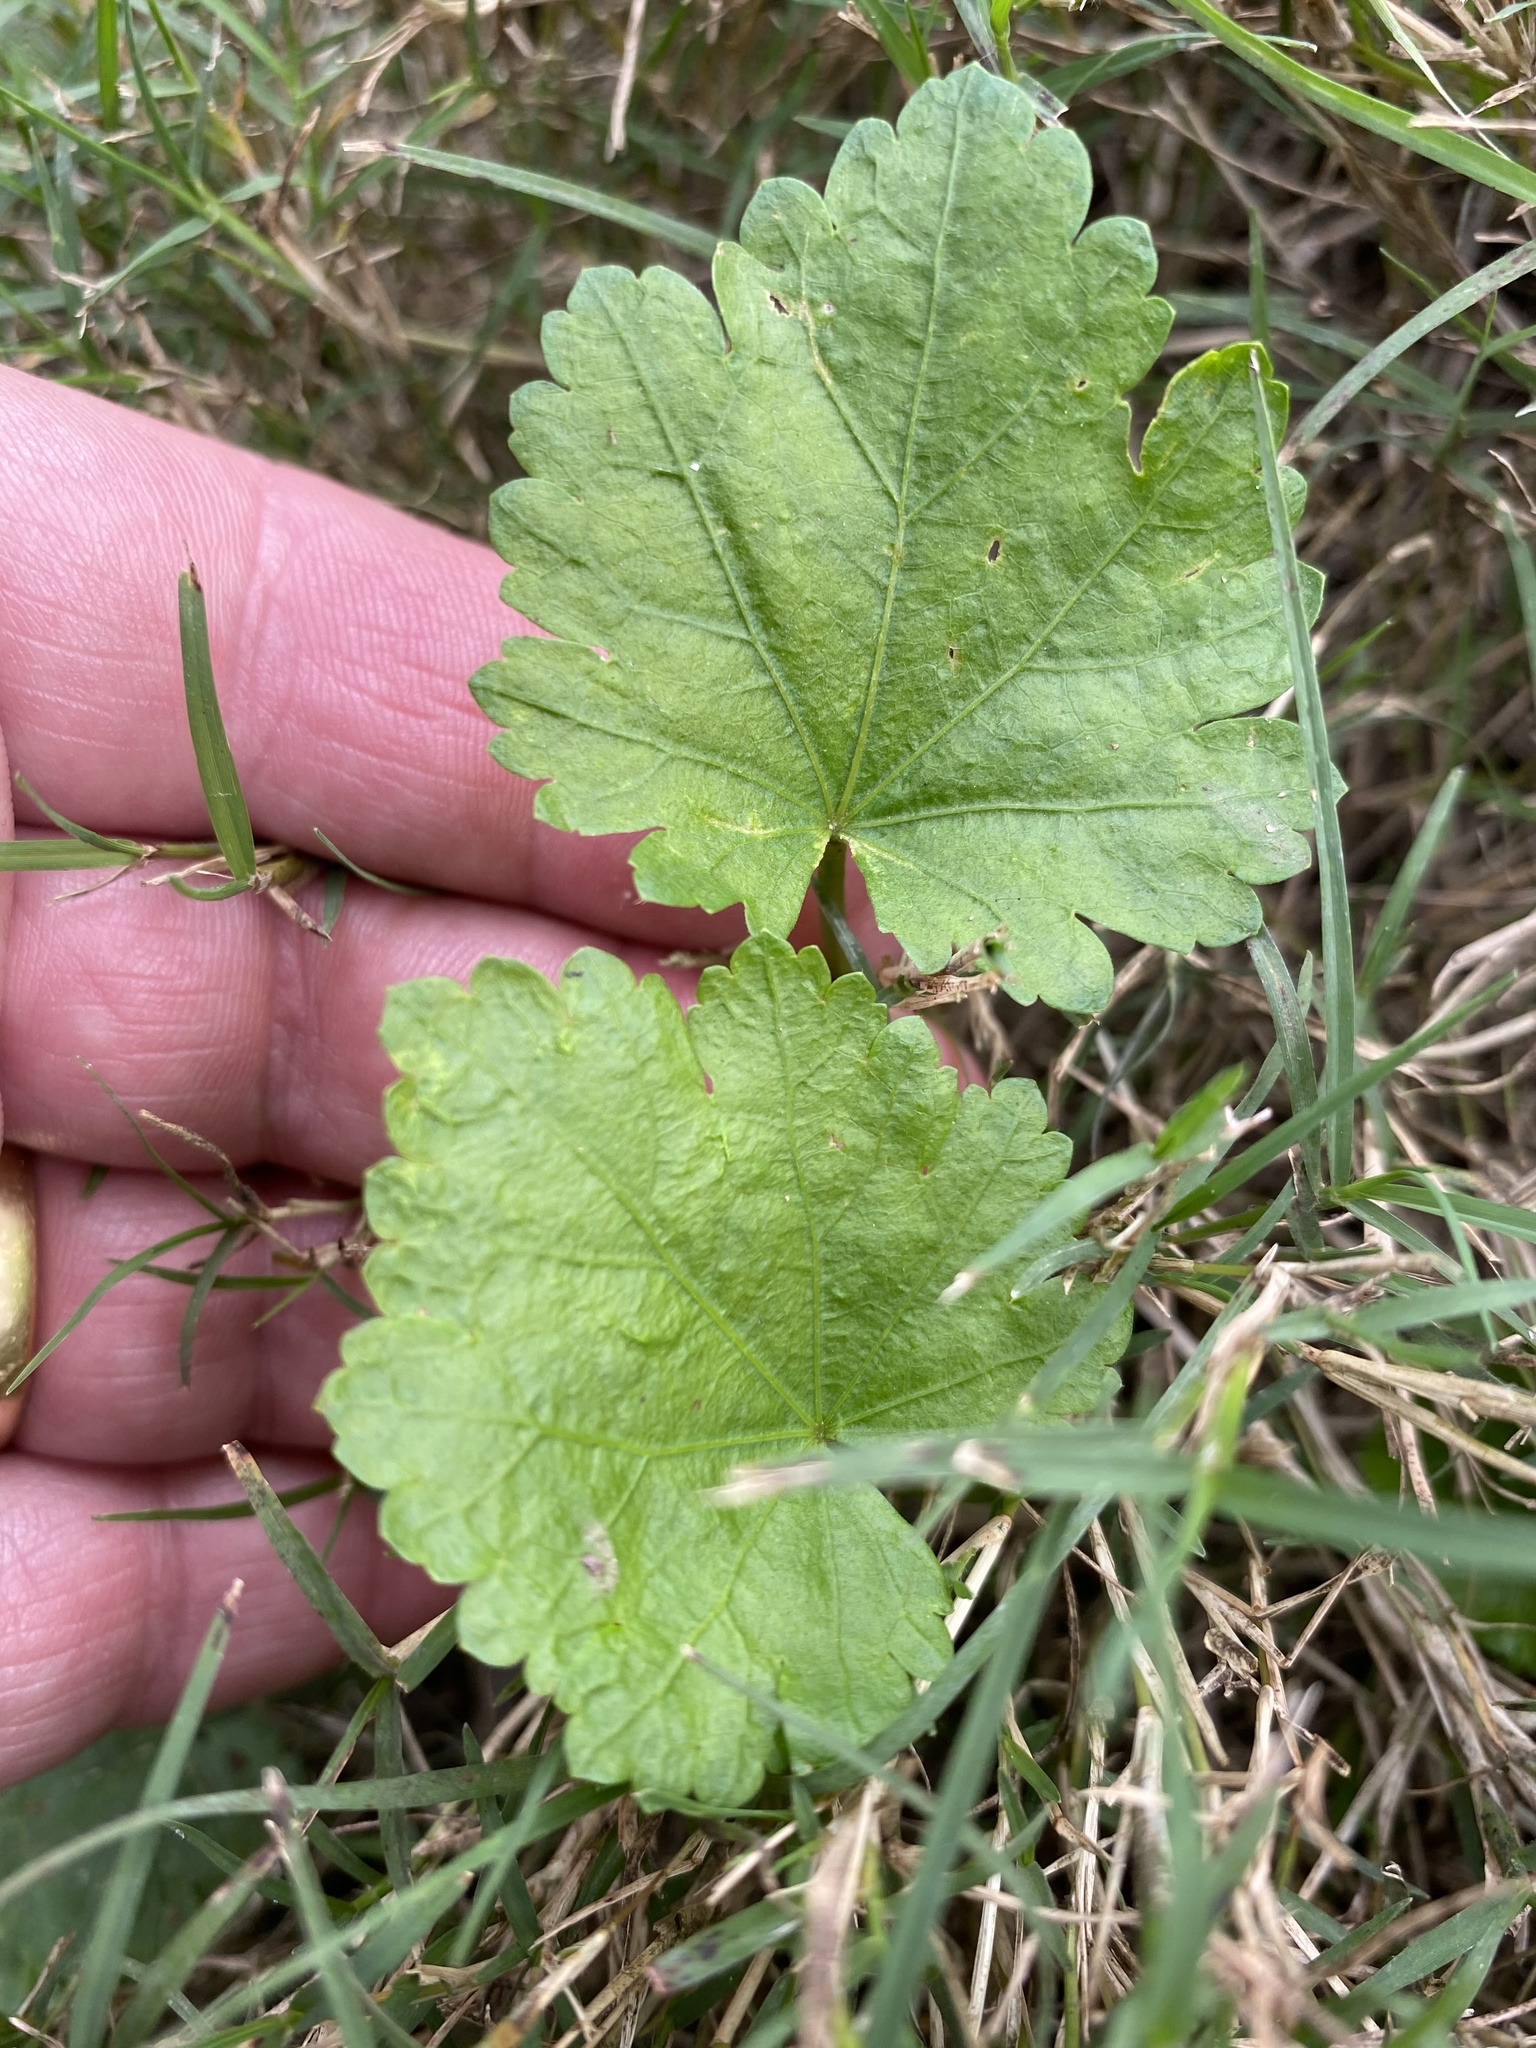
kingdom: Plantae
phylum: Tracheophyta
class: Magnoliopsida
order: Malvales
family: Malvaceae
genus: Modiola
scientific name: Modiola caroliniana
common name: Carolina bristlemallow
